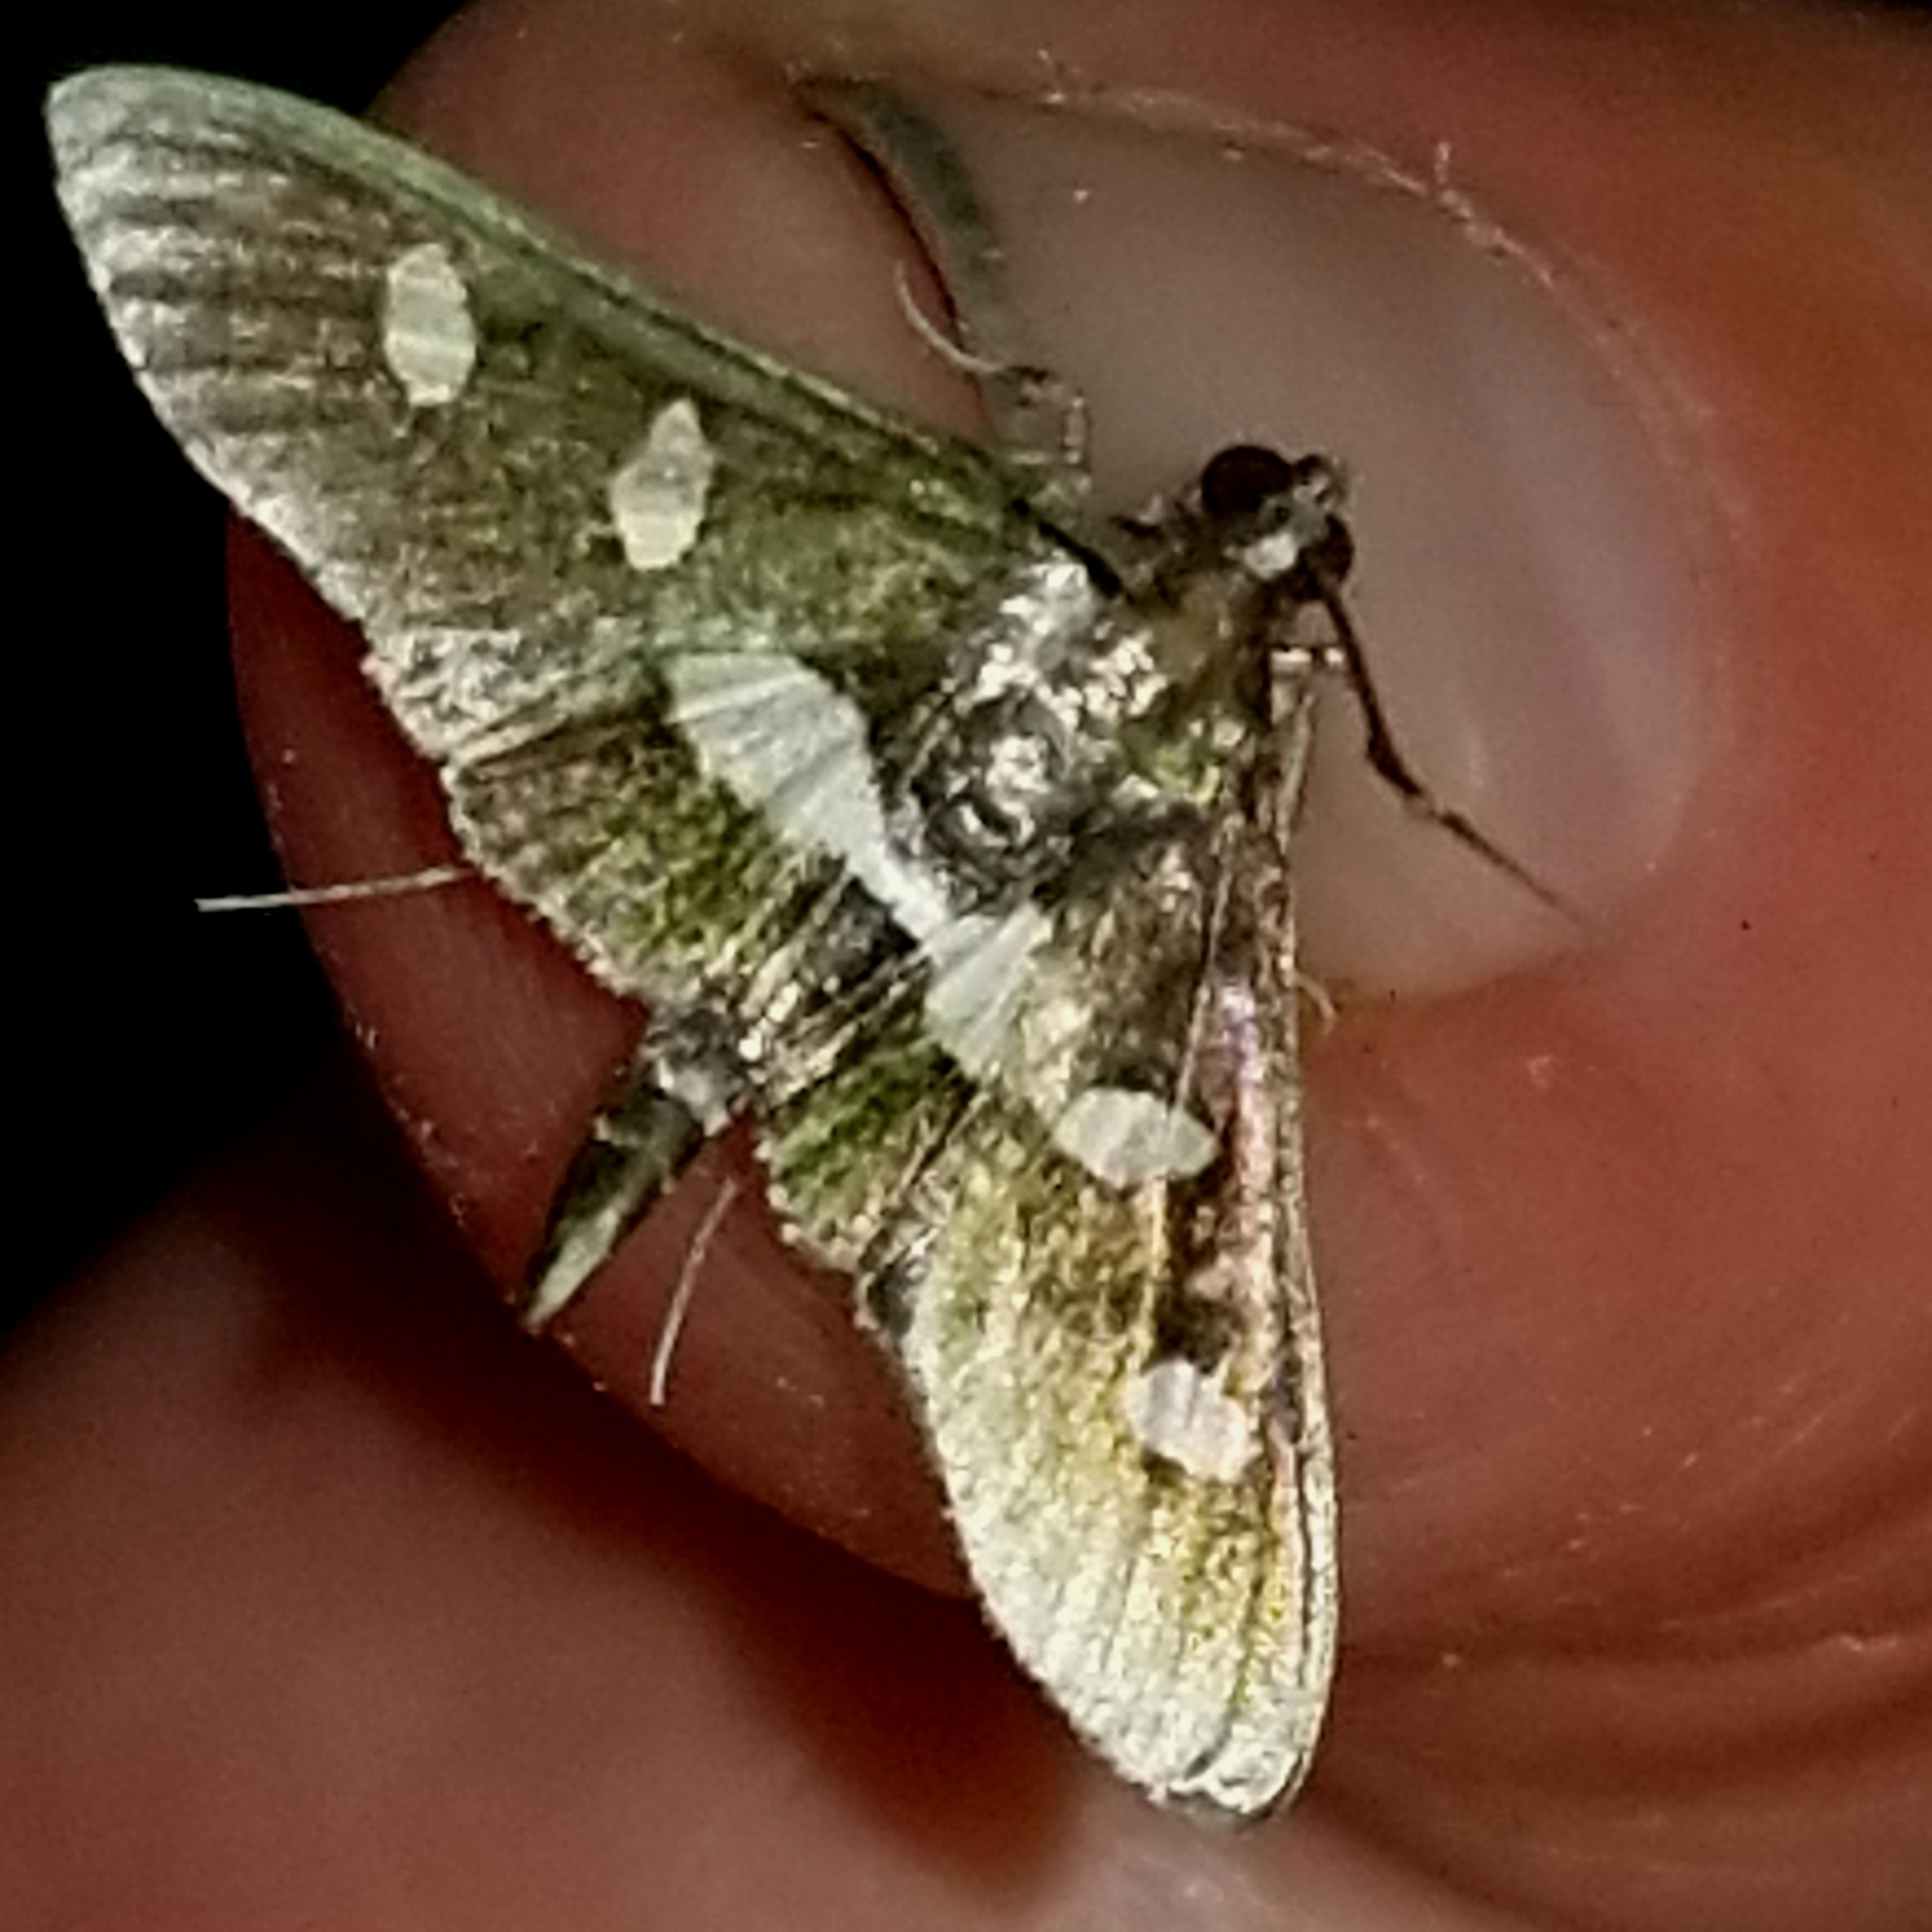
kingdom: Animalia
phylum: Arthropoda
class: Insecta
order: Lepidoptera
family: Crambidae
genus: Desmia
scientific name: Desmia
